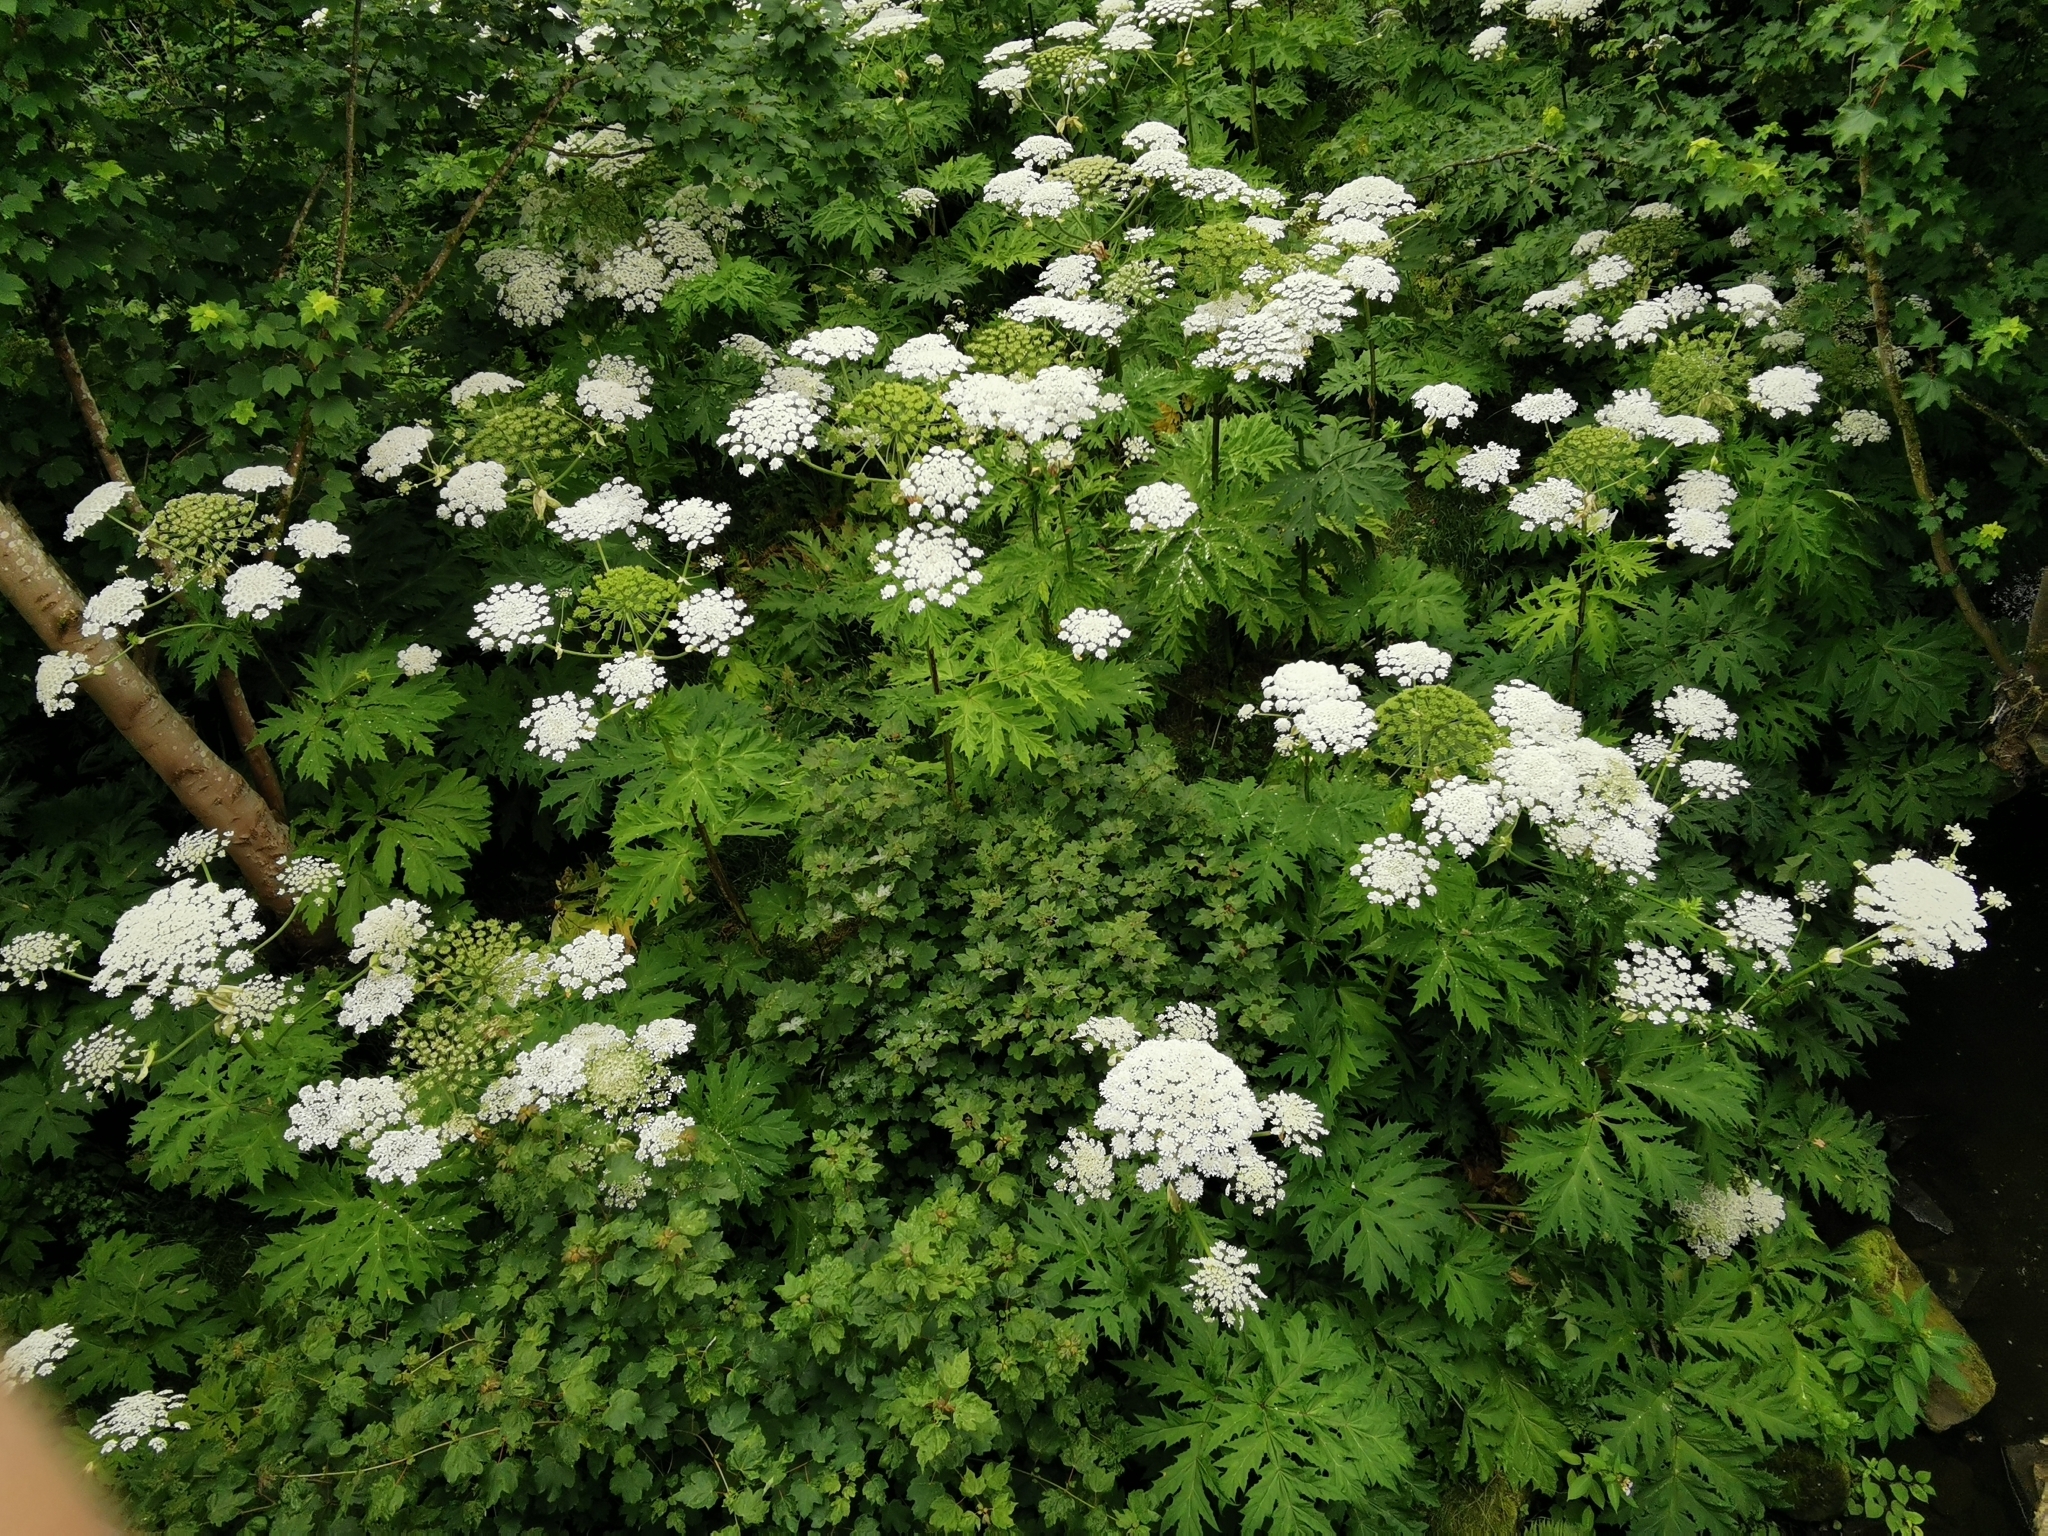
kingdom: Plantae
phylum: Tracheophyta
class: Magnoliopsida
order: Apiales
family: Apiaceae
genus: Heracleum
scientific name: Heracleum mantegazzianum
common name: Giant hogweed
